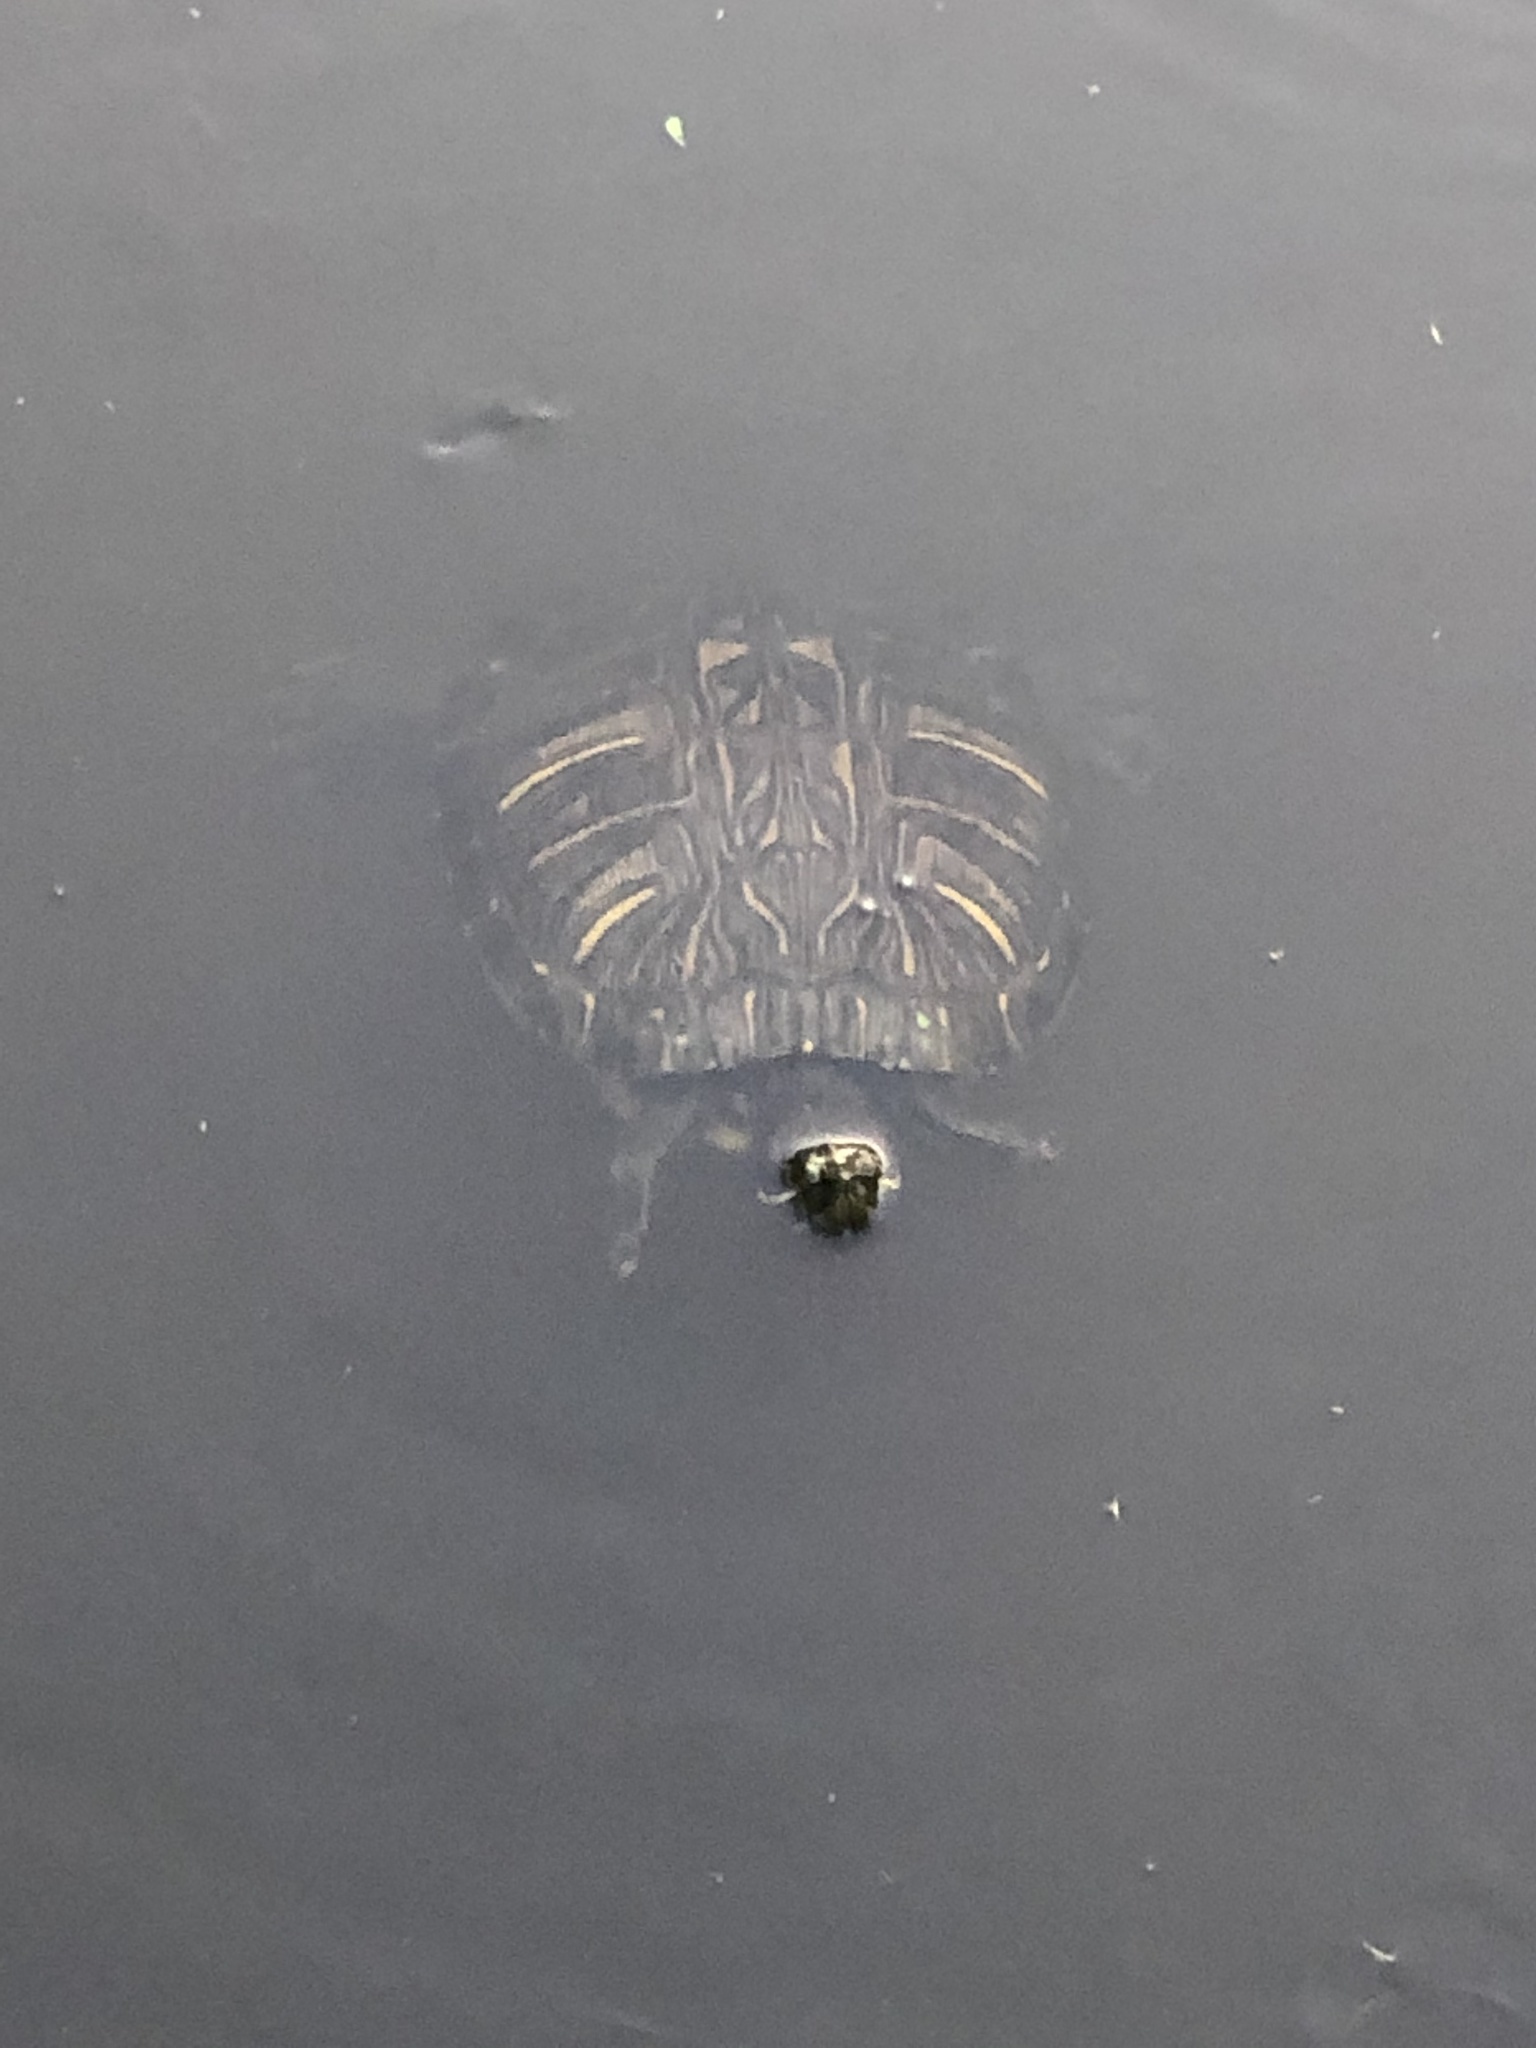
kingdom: Animalia
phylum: Chordata
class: Testudines
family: Emydidae
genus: Trachemys
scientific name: Trachemys scripta
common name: Slider
